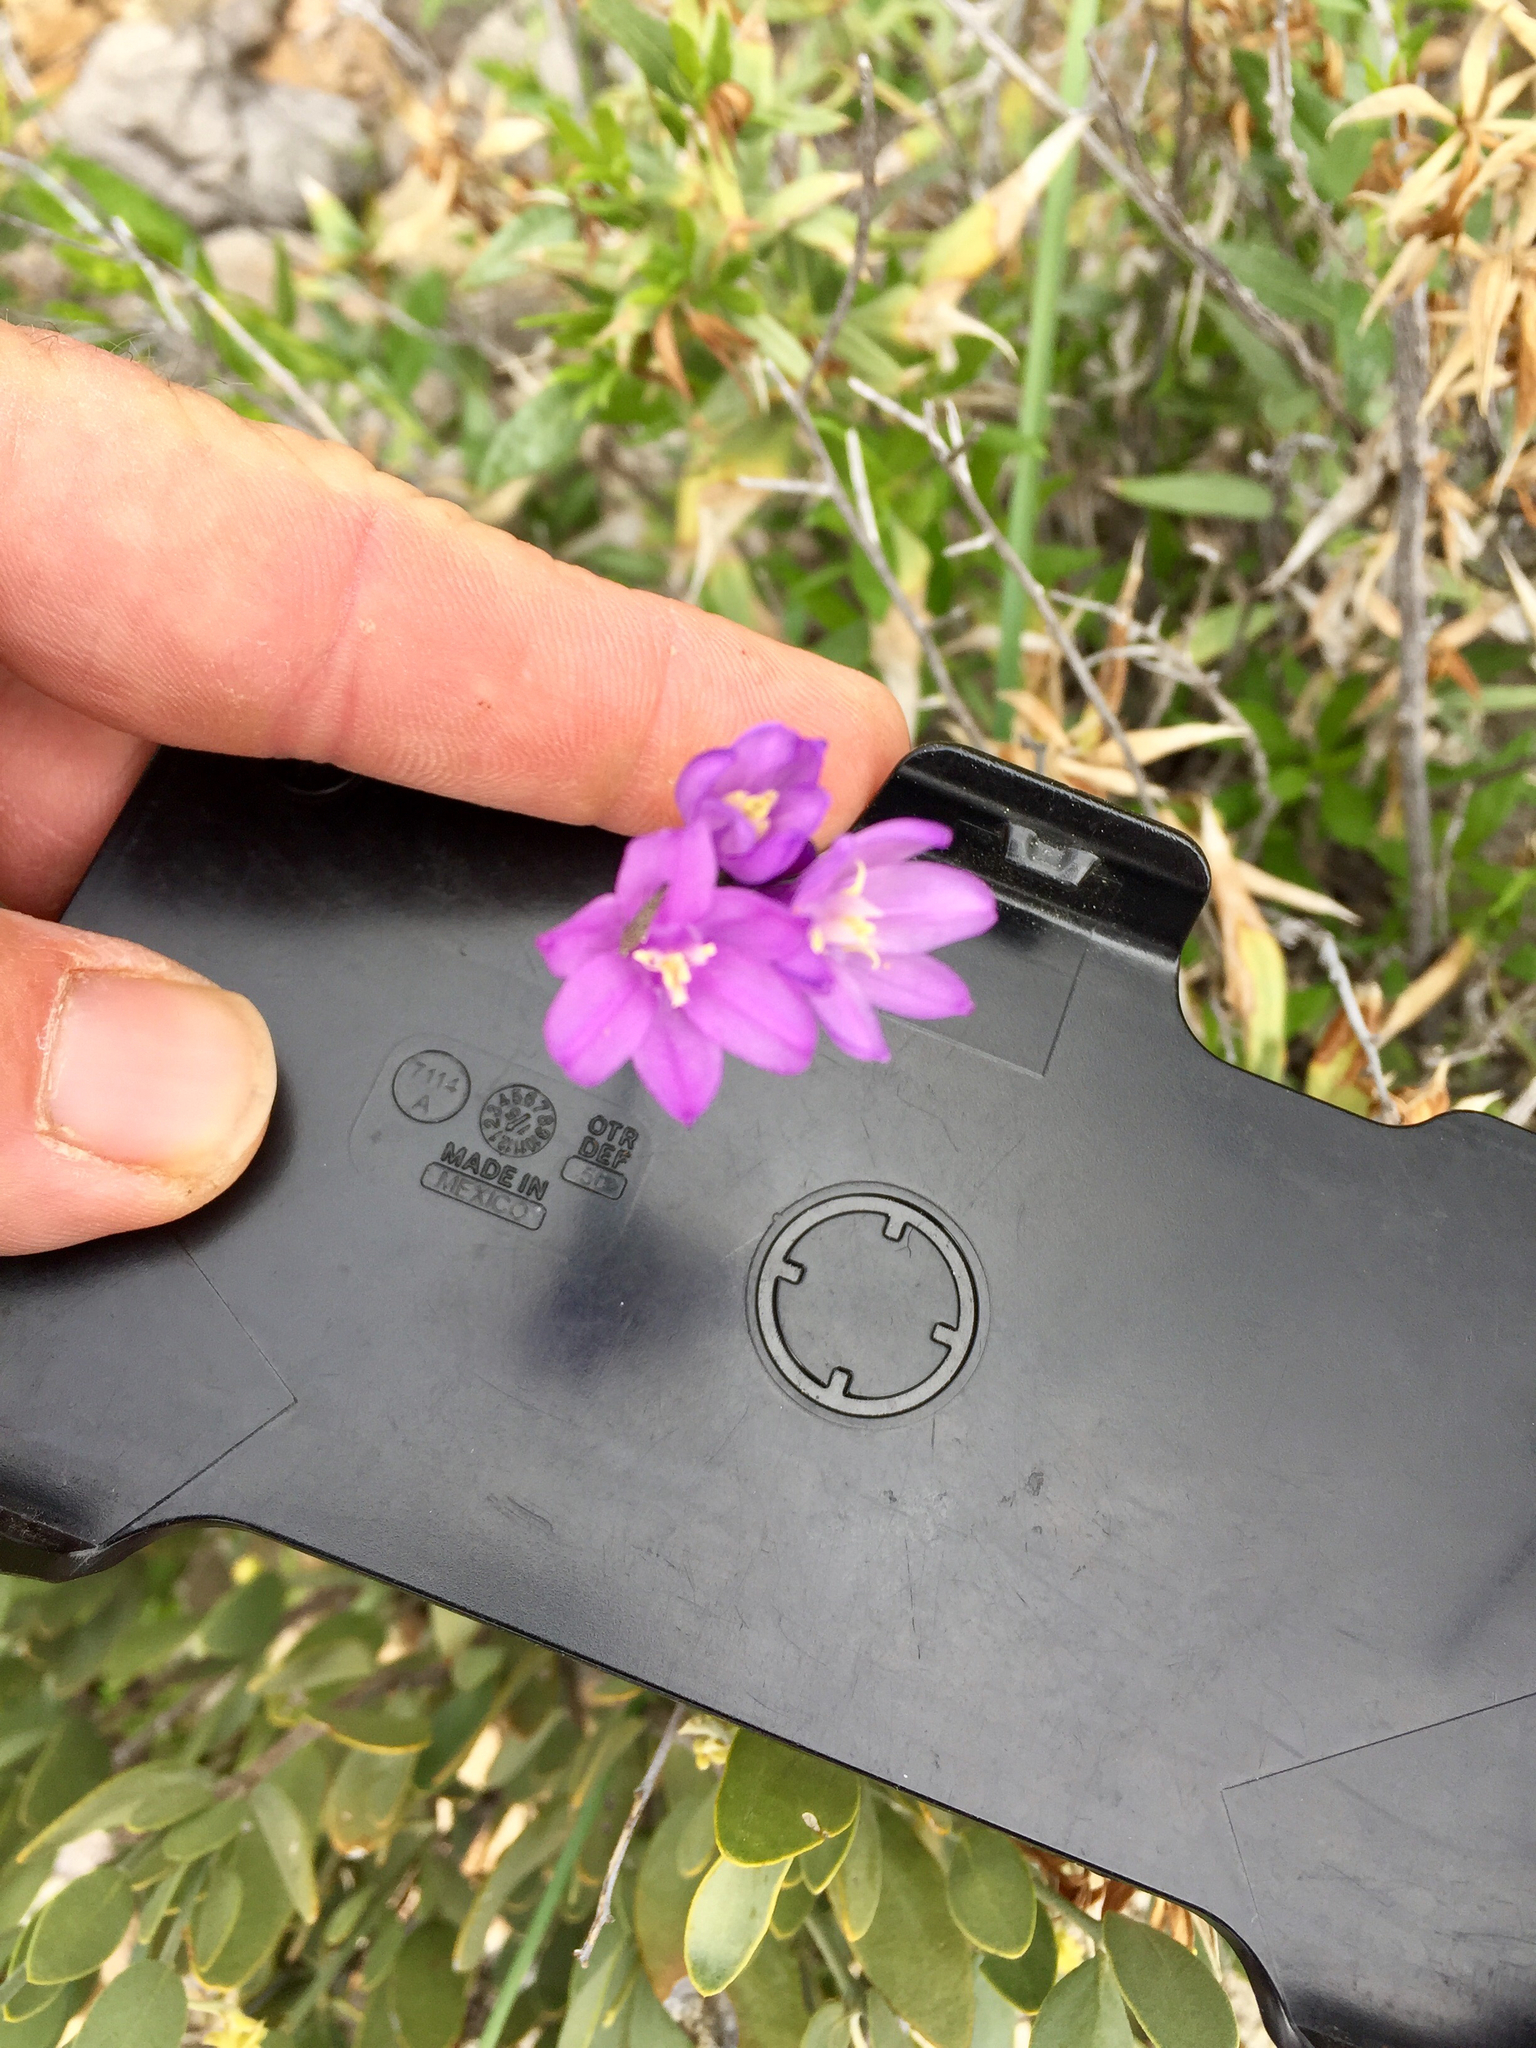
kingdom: Plantae
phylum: Tracheophyta
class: Liliopsida
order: Asparagales
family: Asparagaceae
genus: Dipterostemon
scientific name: Dipterostemon capitatus
